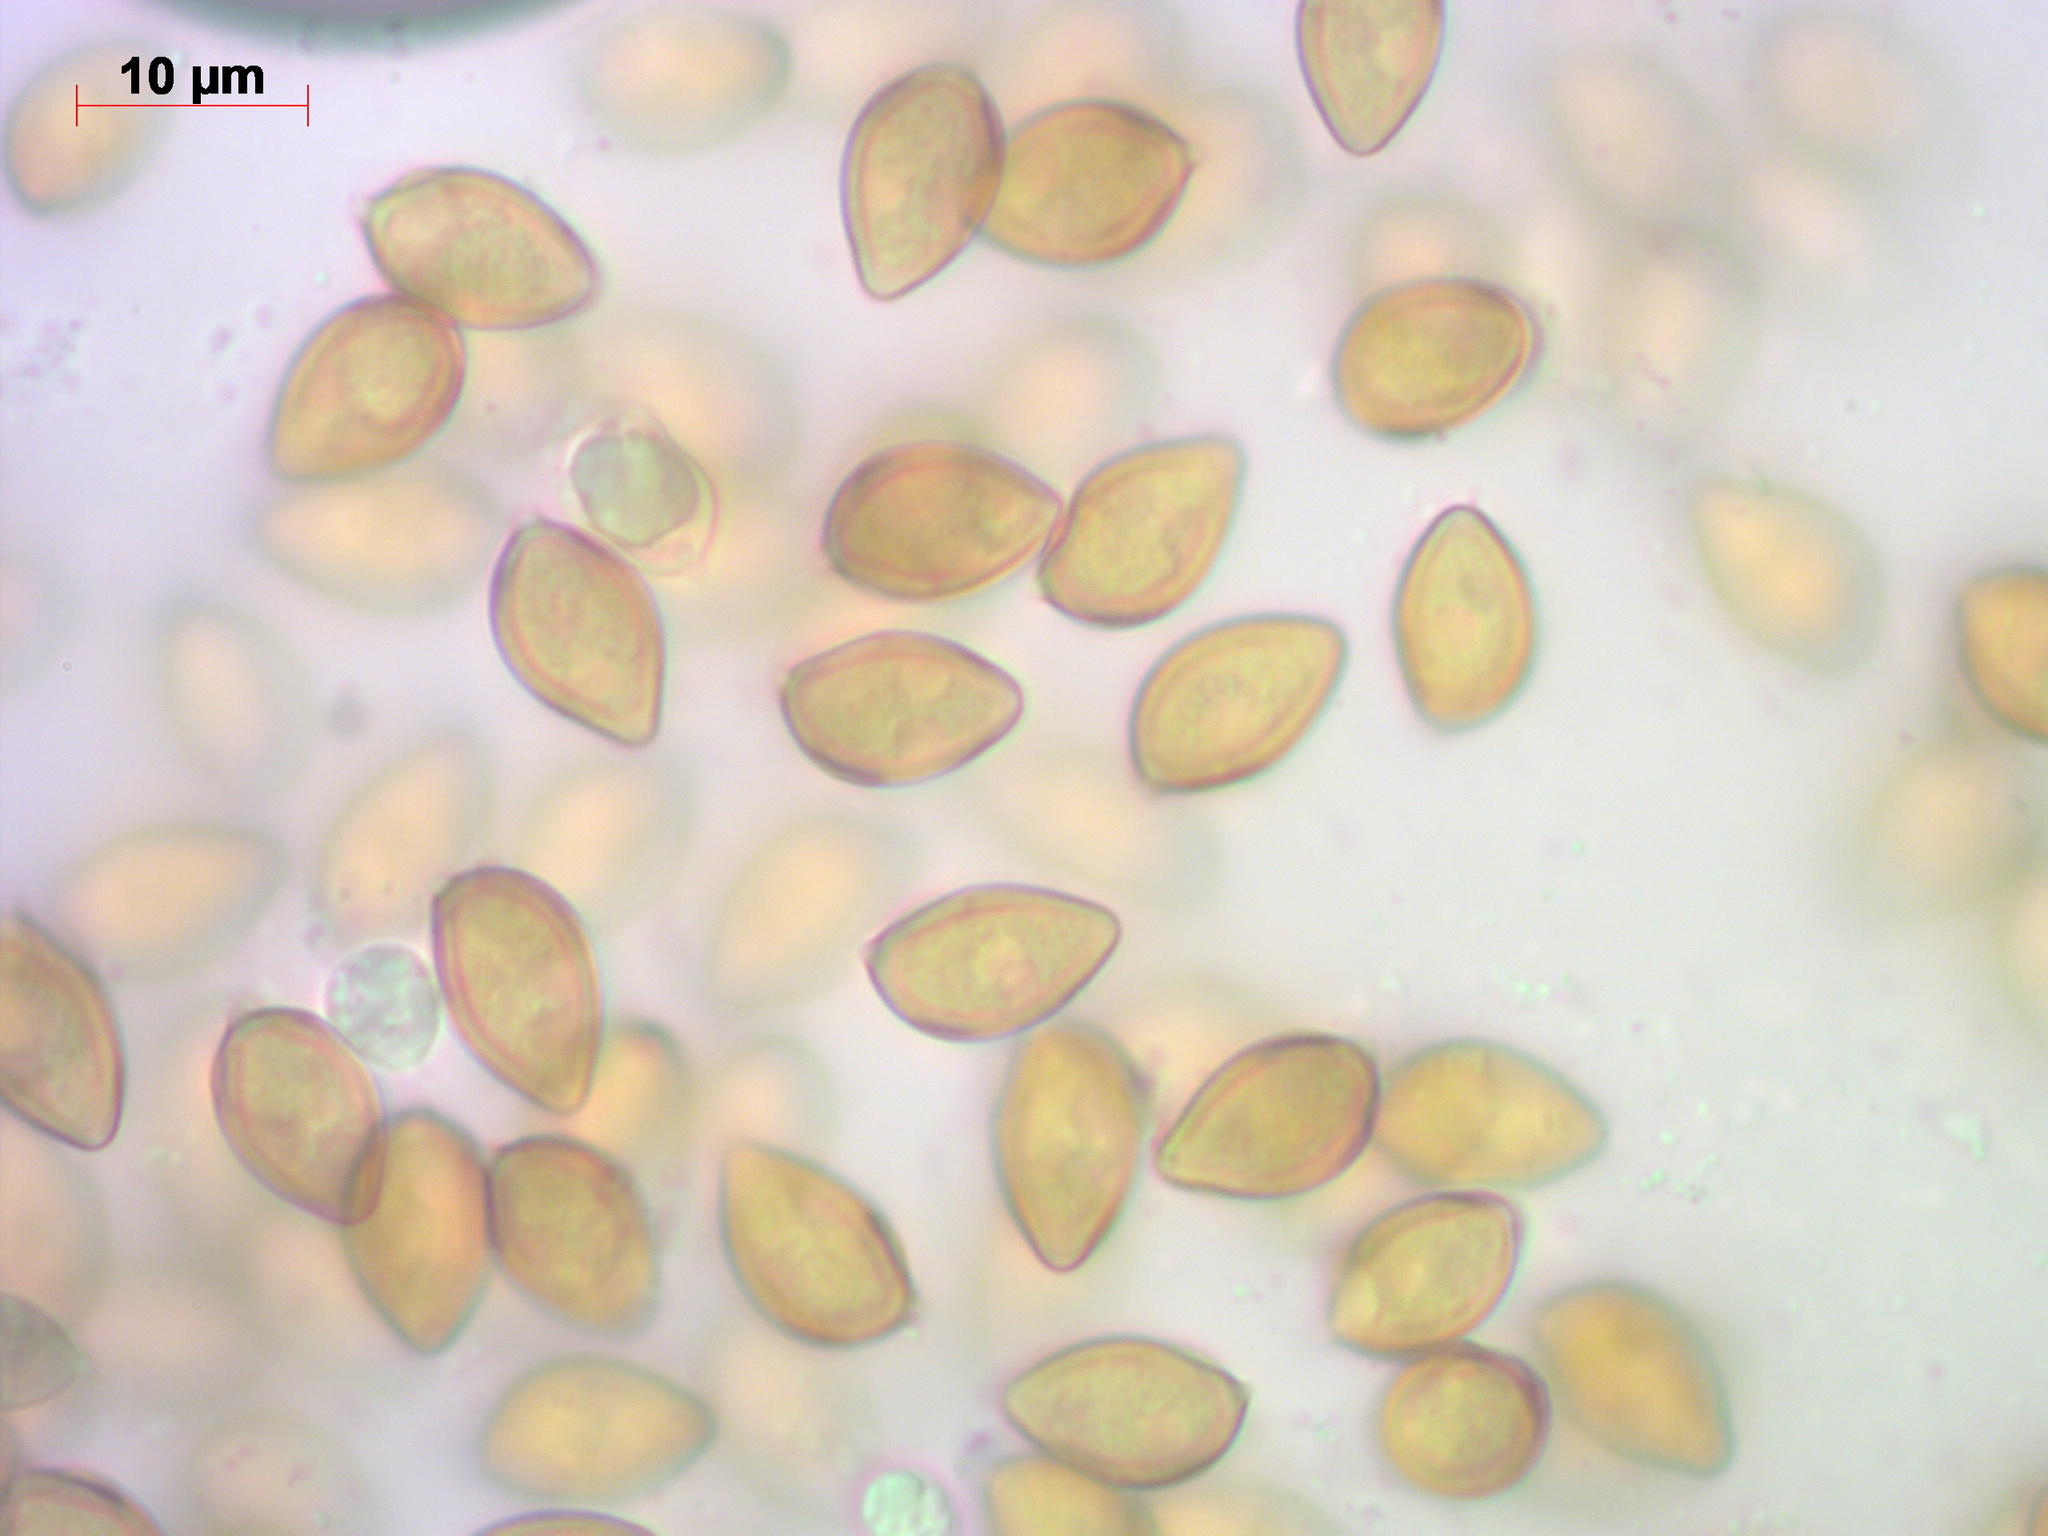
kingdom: Fungi
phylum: Basidiomycota
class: Agaricomycetes
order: Agaricales
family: Hymenogastraceae
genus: Galerina
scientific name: Galerina calyptrata
